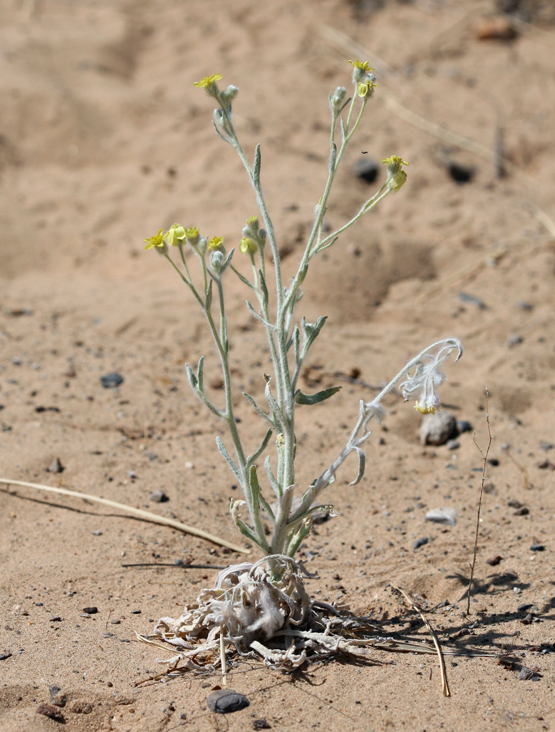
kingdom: Plantae
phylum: Tracheophyta
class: Magnoliopsida
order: Asterales
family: Asteraceae
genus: Baileya
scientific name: Baileya pauciradiata
